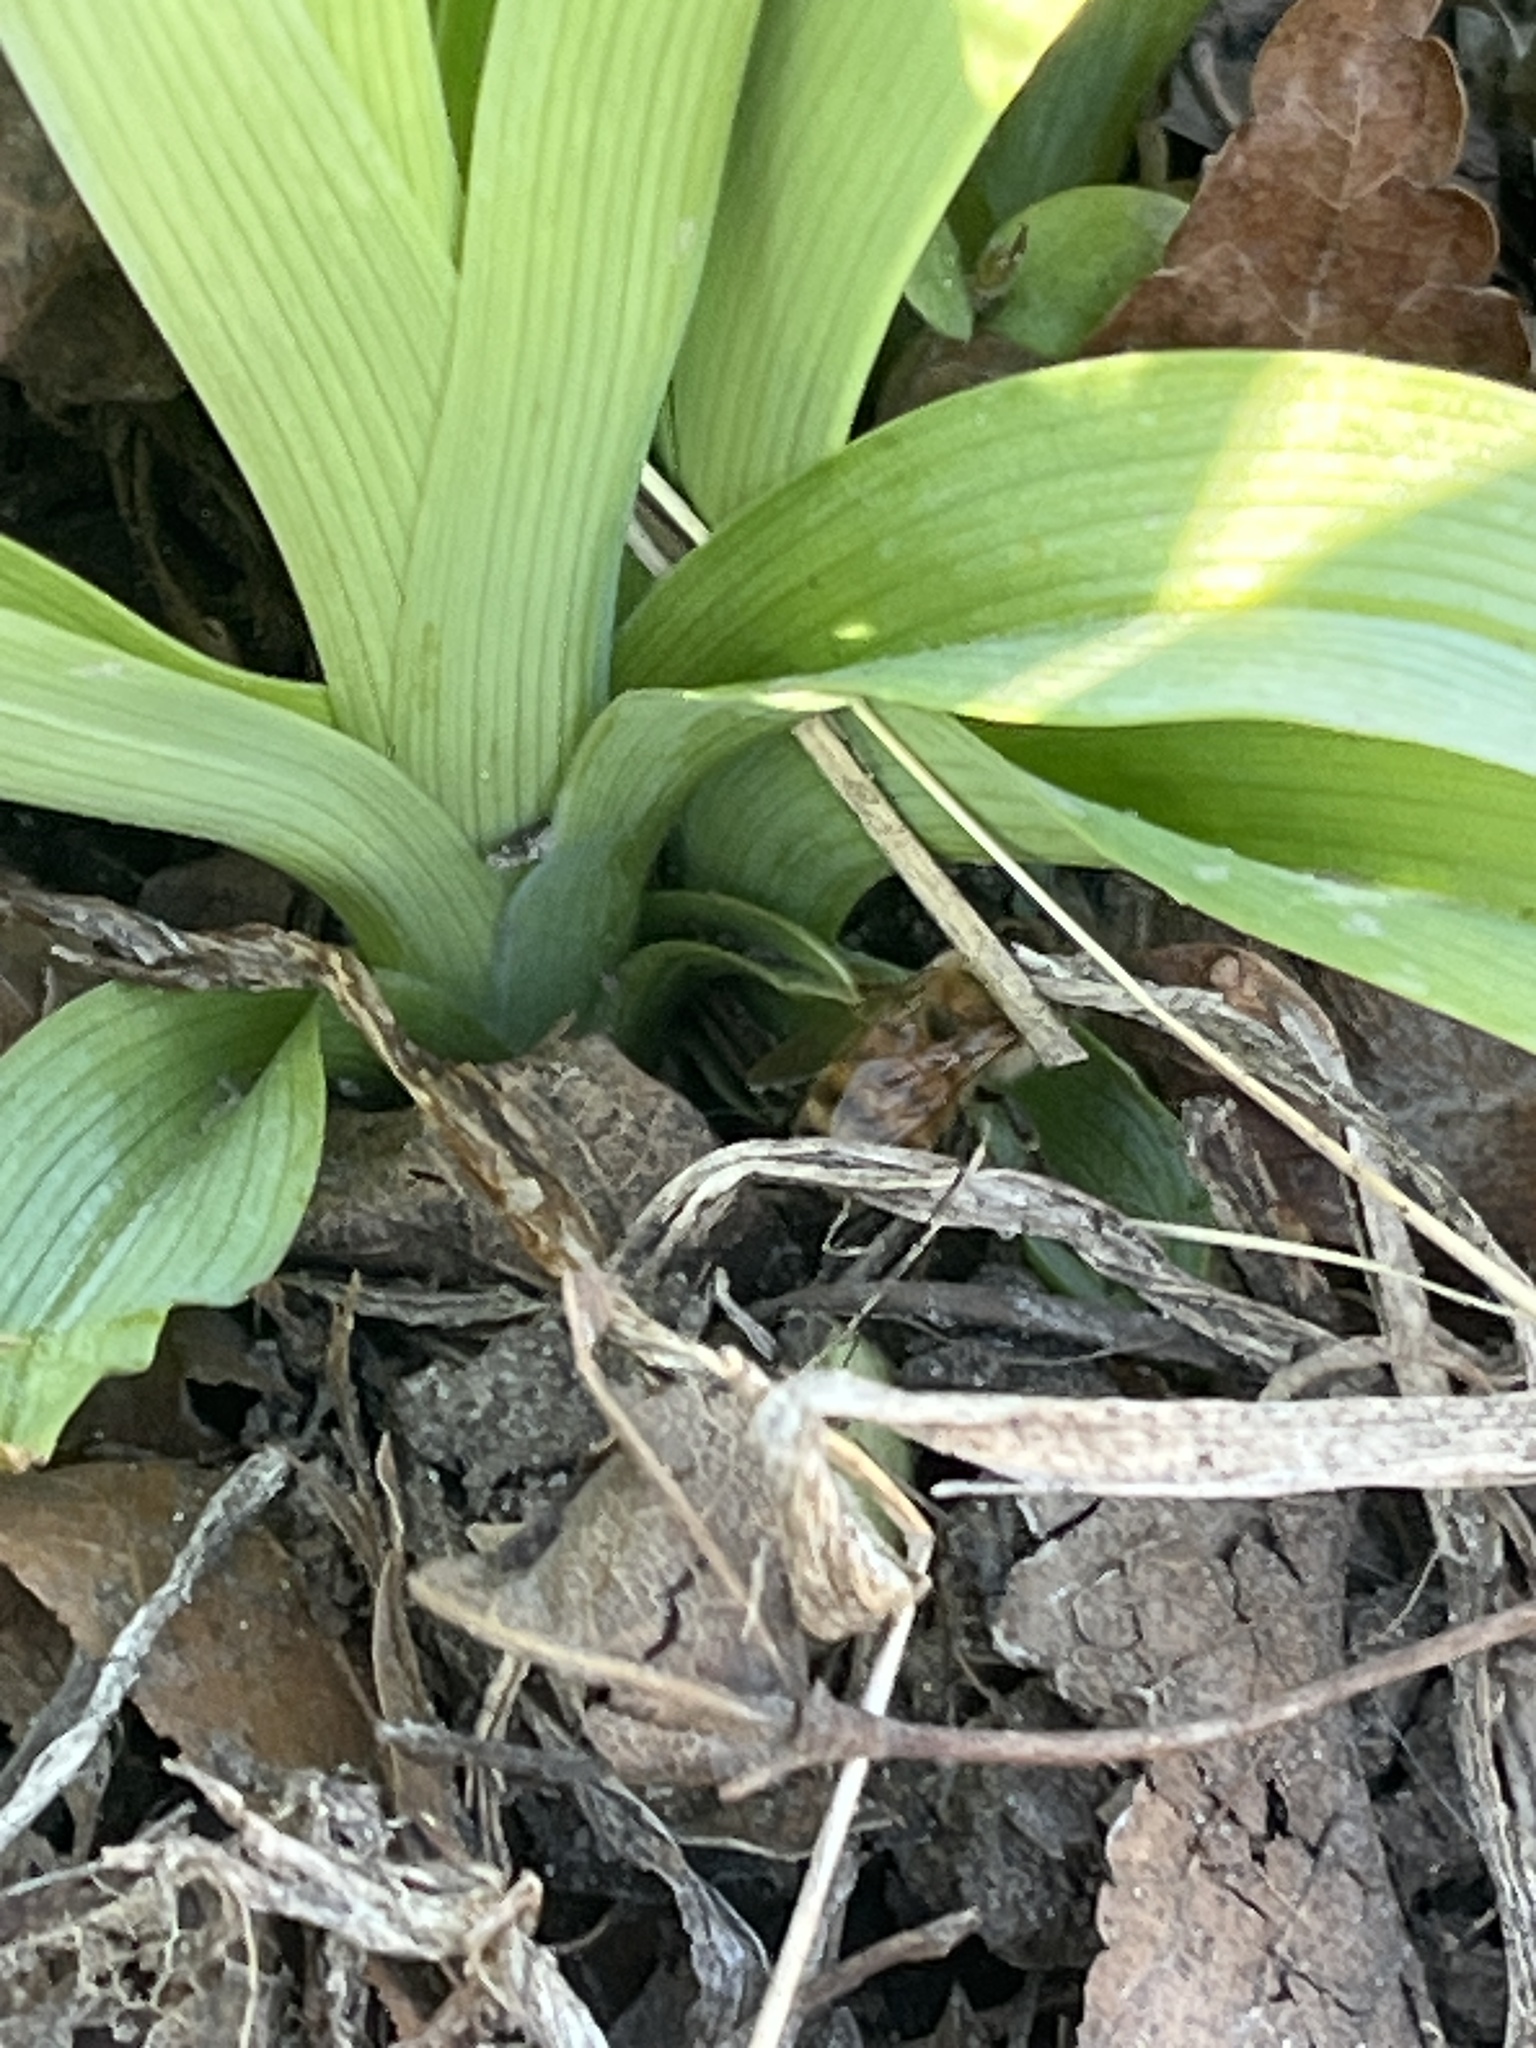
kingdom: Animalia
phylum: Arthropoda
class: Insecta
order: Hymenoptera
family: Apidae
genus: Apis
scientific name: Apis mellifera
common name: Honey bee
